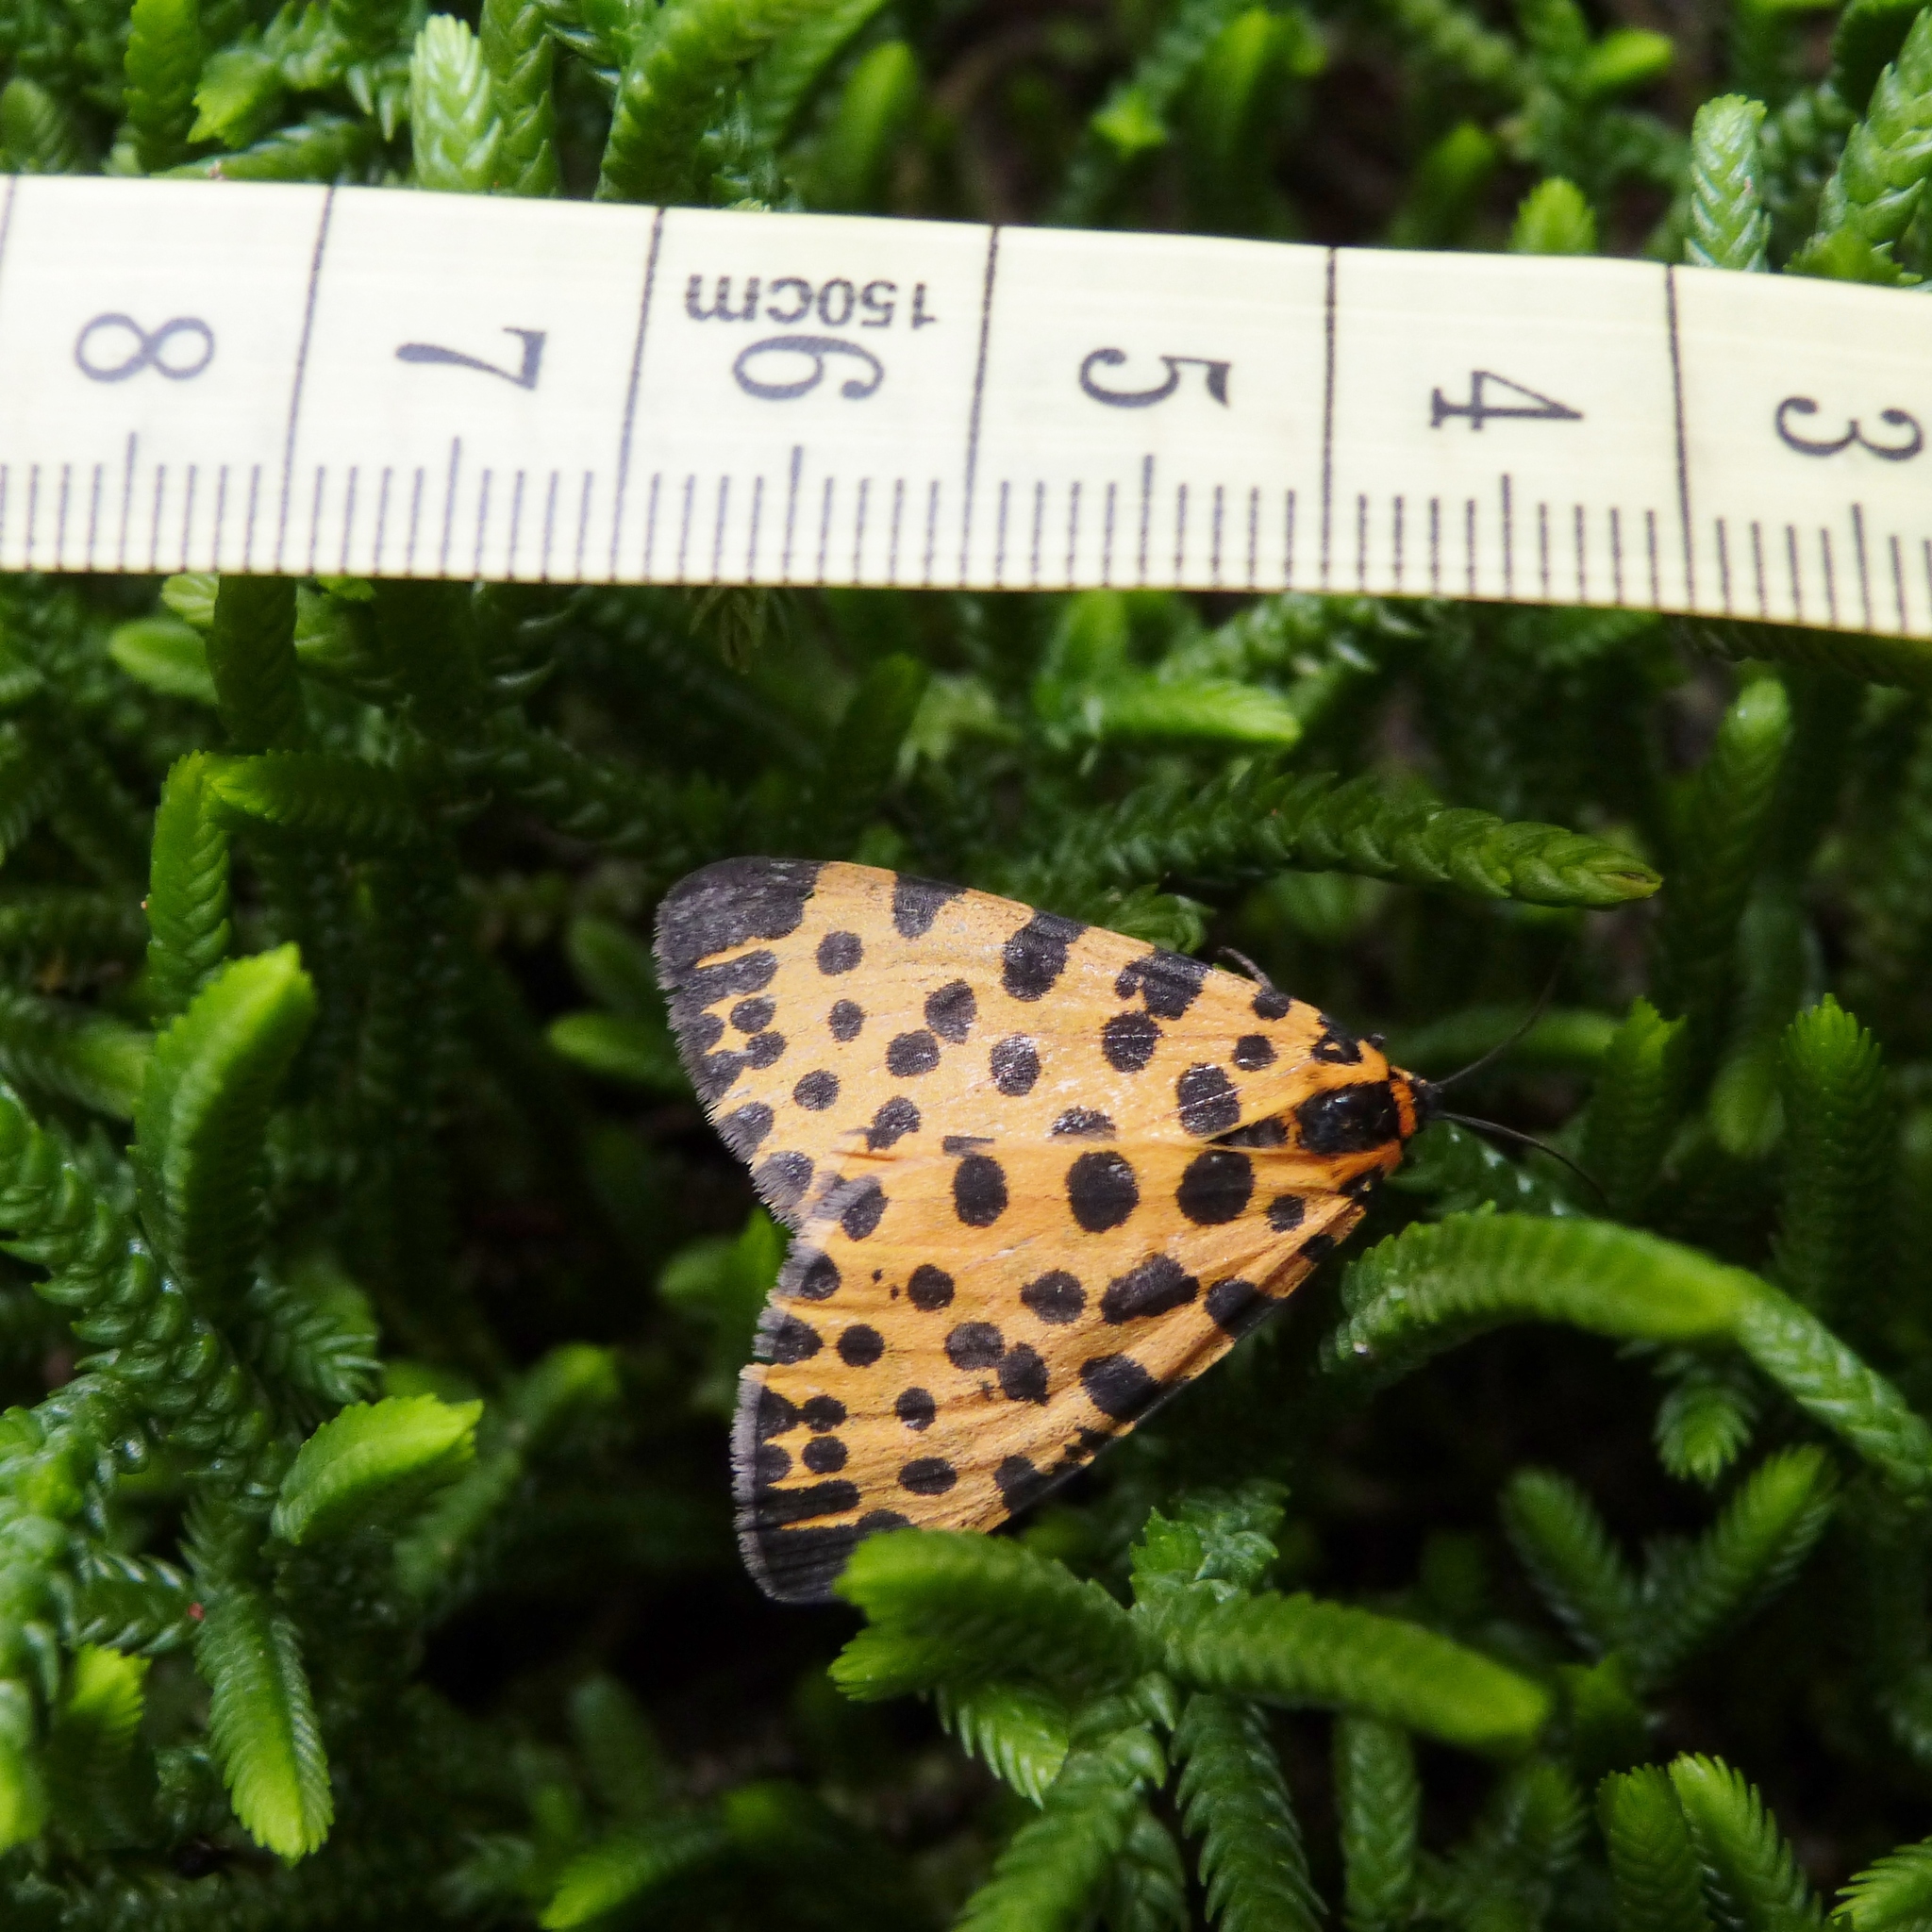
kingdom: Animalia
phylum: Arthropoda
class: Insecta
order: Lepidoptera
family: Geometridae
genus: Zerenopsis
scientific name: Zerenopsis lepida
